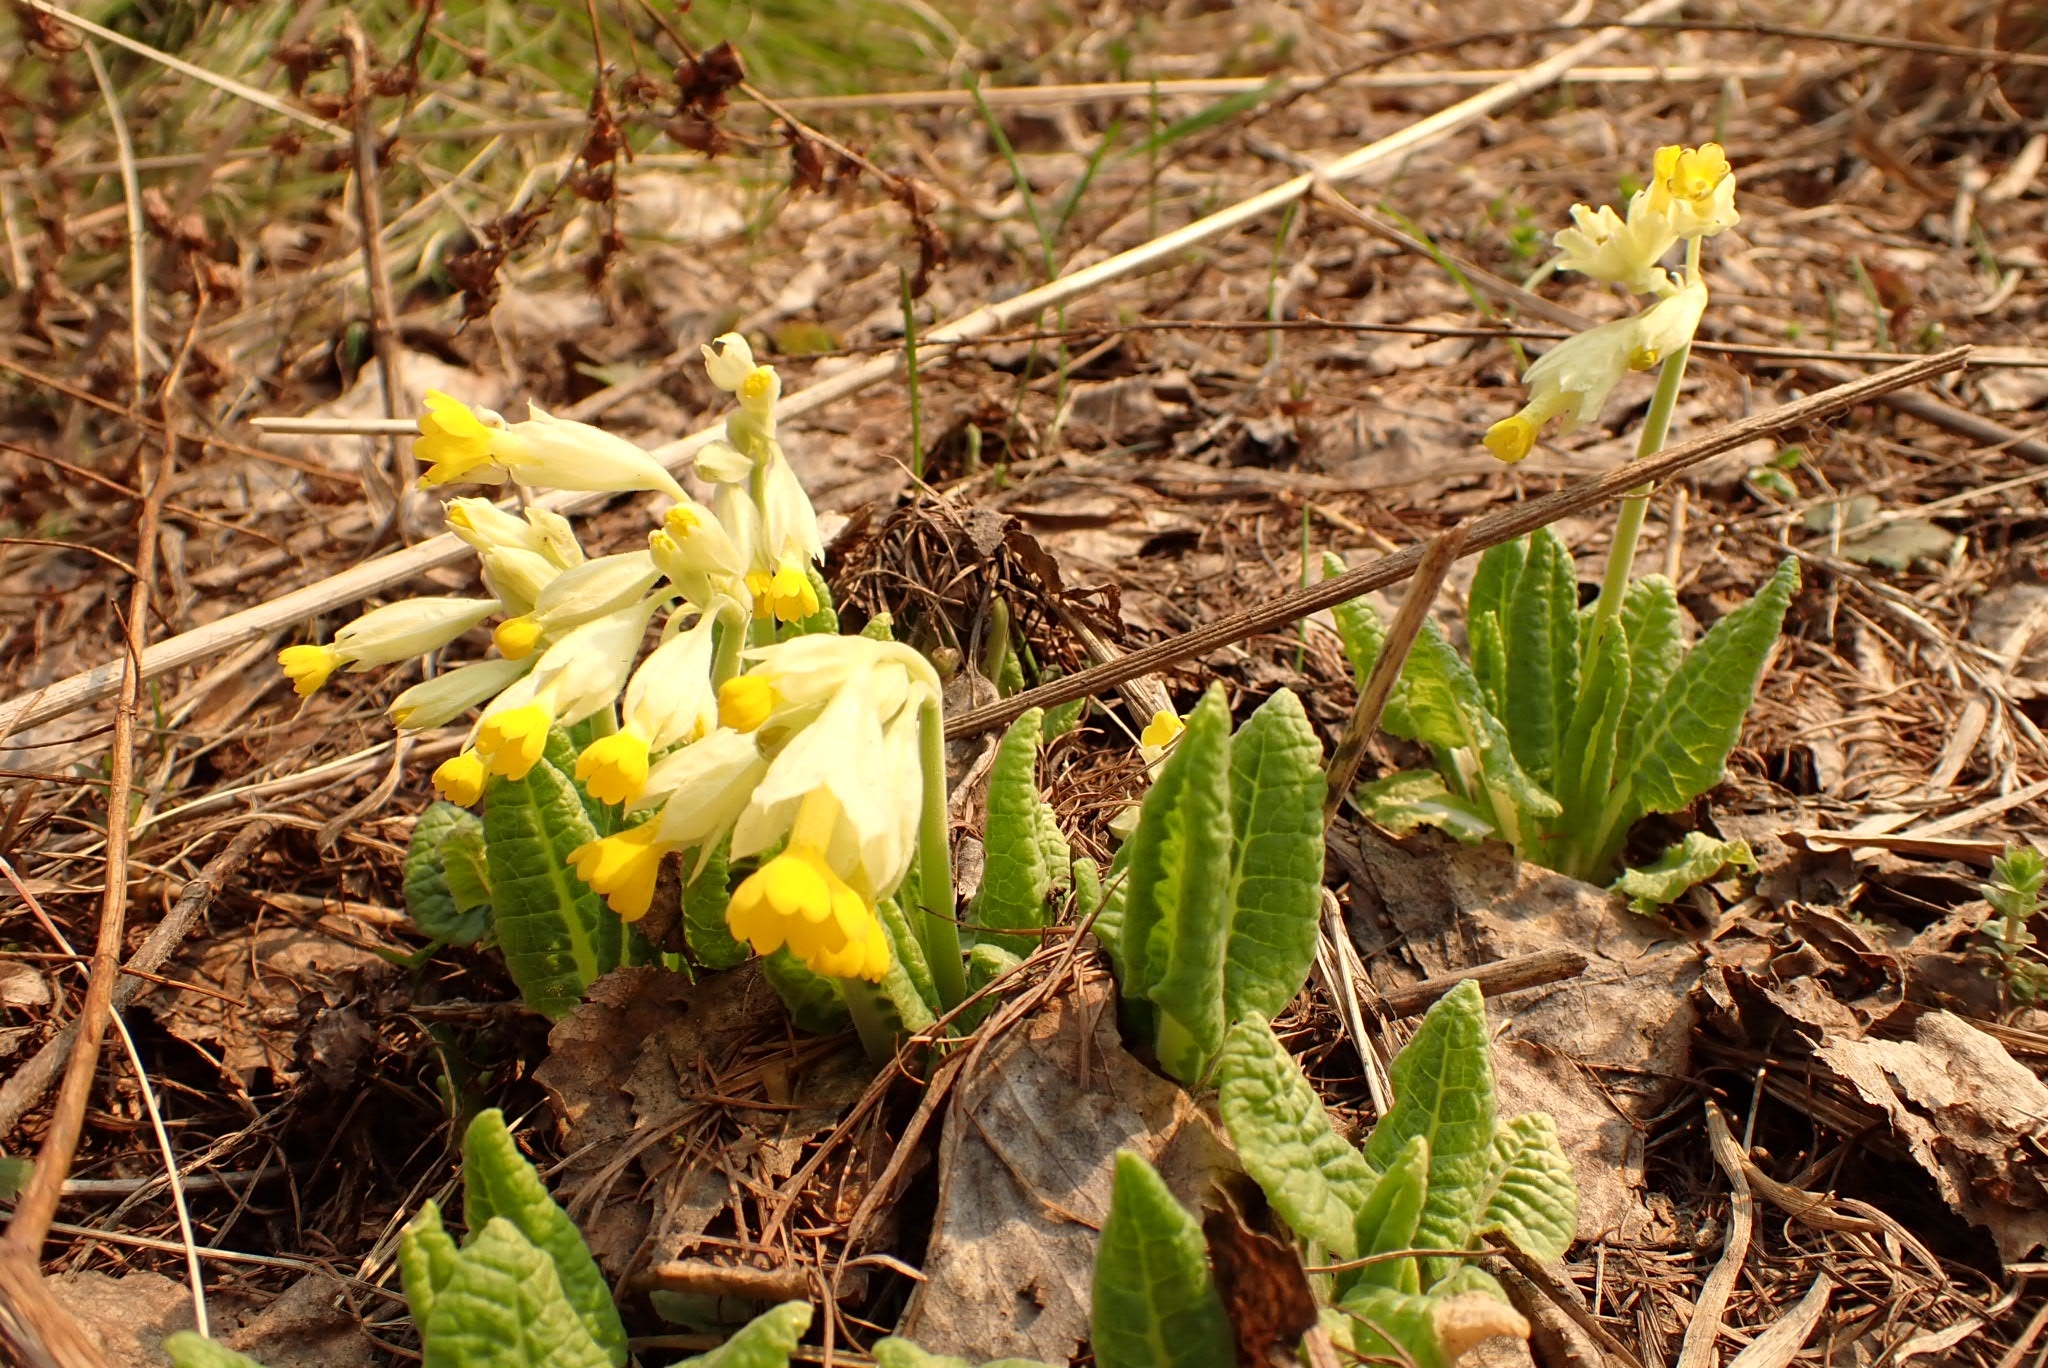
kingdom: Plantae
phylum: Tracheophyta
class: Magnoliopsida
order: Ericales
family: Primulaceae
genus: Primula
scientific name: Primula veris
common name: Cowslip
